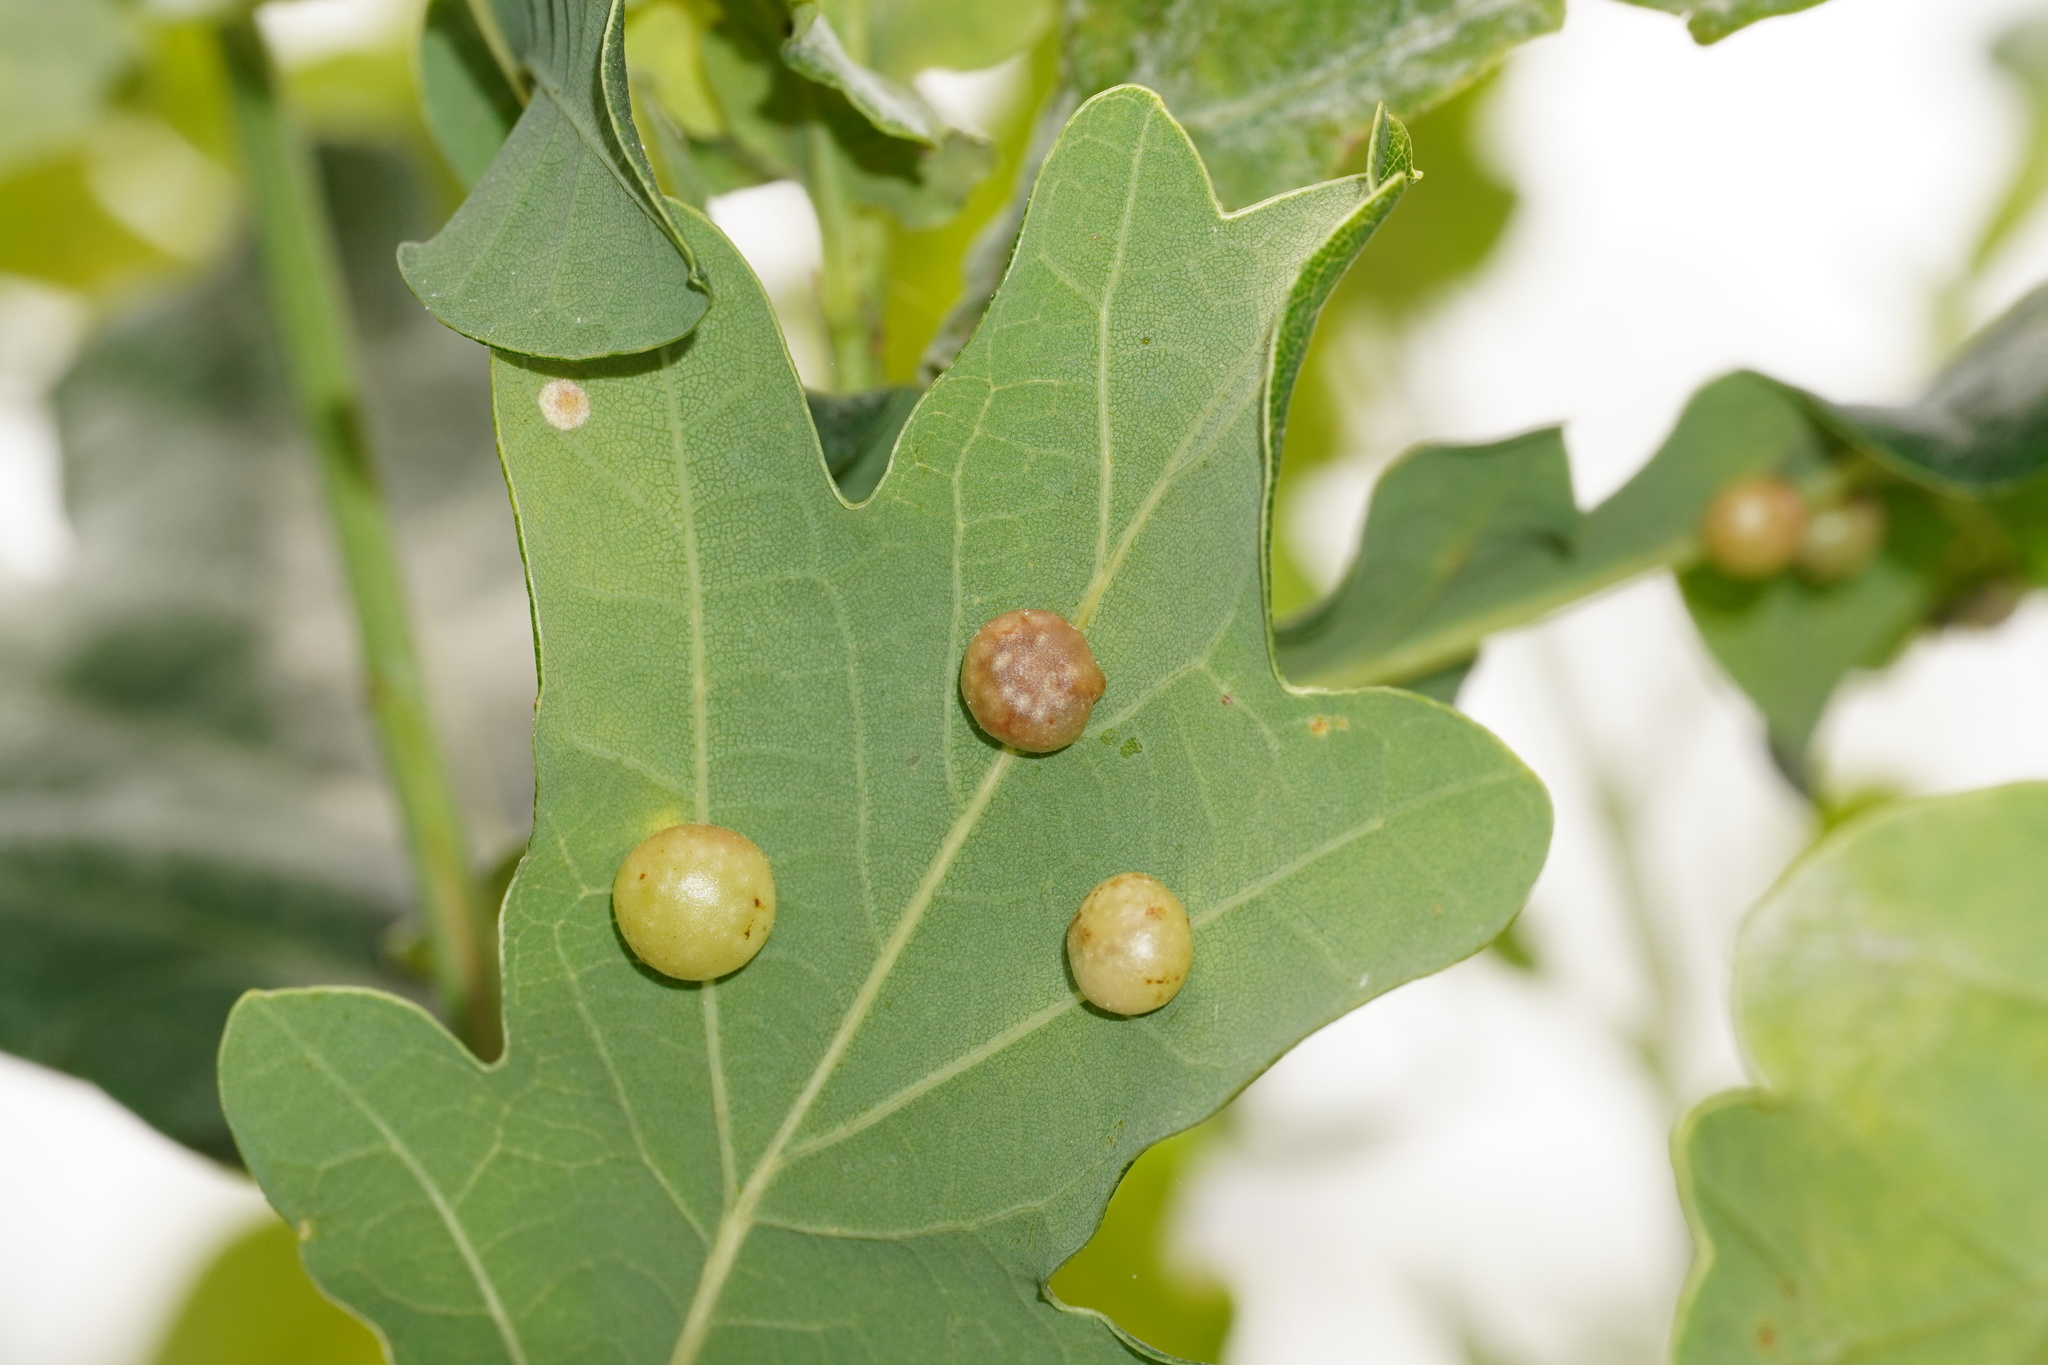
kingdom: Animalia
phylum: Arthropoda
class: Insecta
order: Hymenoptera
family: Cynipidae
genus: Cynips
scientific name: Cynips quercusfolii
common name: Cherry gall
